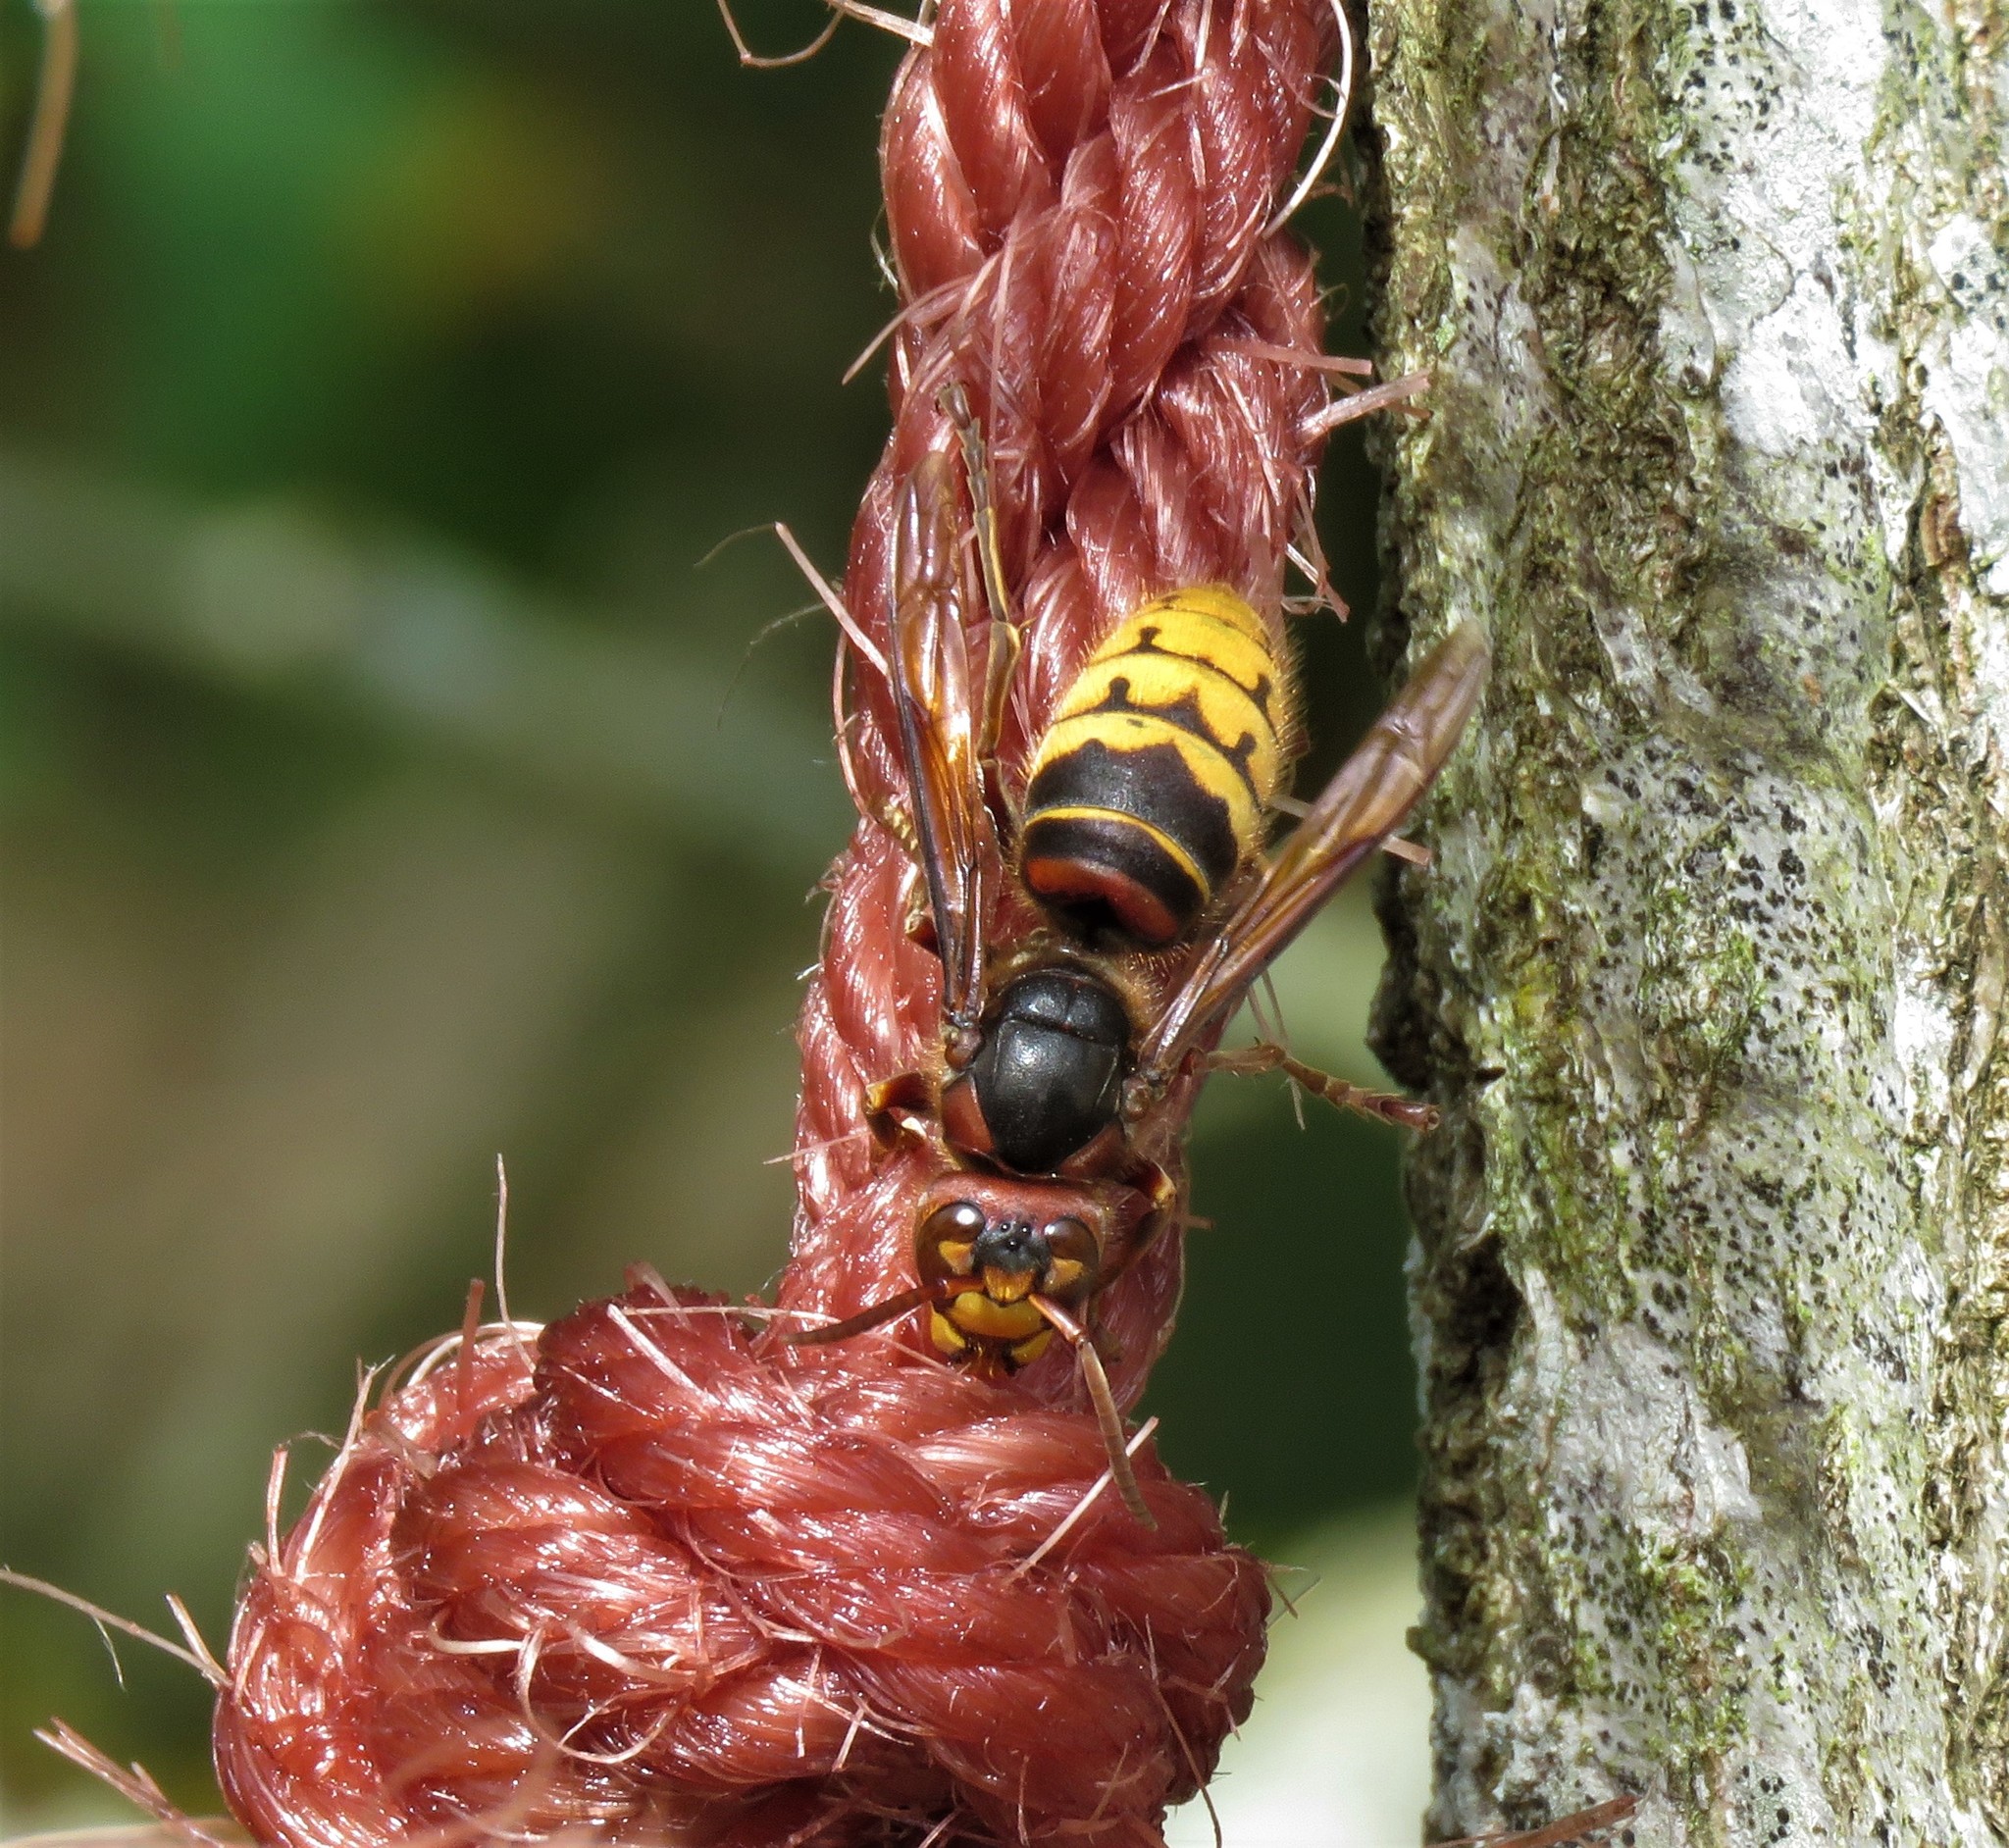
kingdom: Animalia
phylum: Arthropoda
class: Insecta
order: Hymenoptera
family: Vespidae
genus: Vespa
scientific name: Vespa crabro
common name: Hornet
